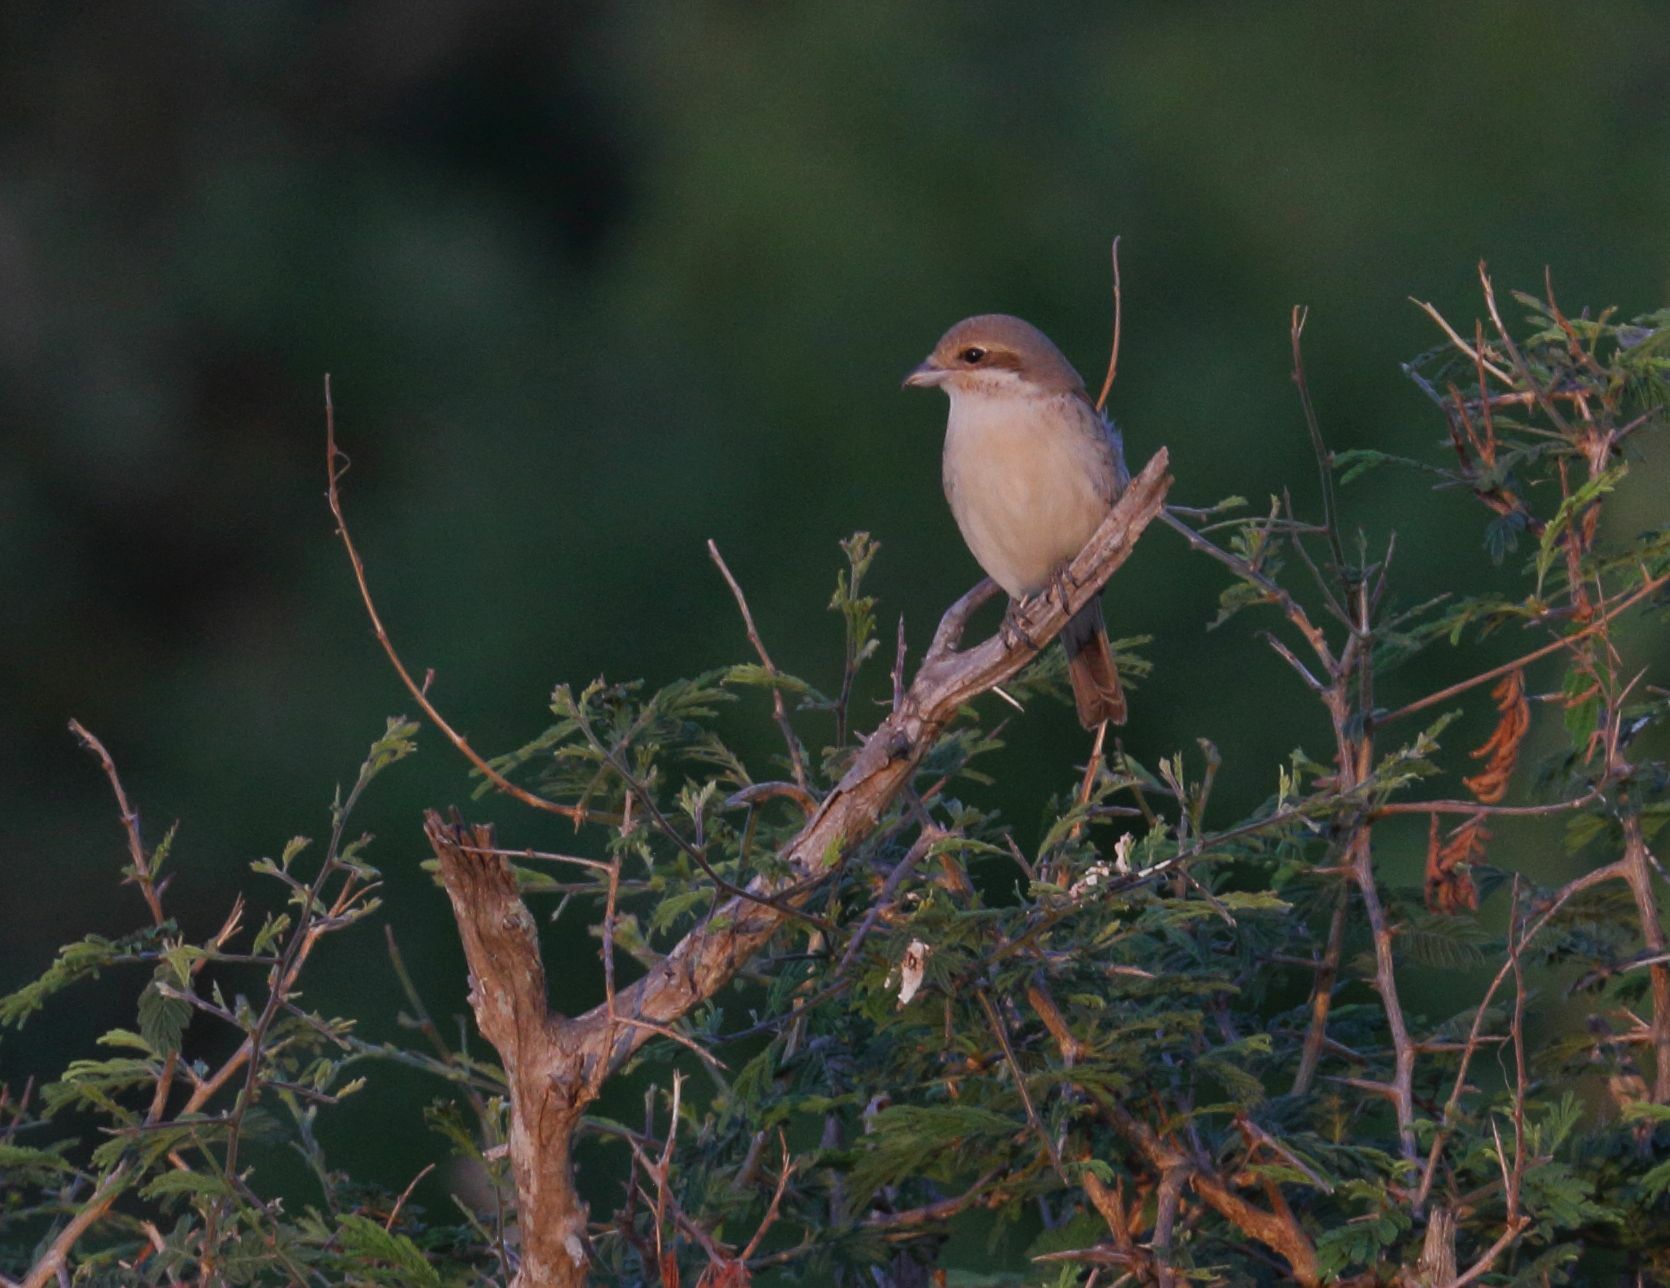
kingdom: Animalia
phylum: Chordata
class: Aves
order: Passeriformes
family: Laniidae
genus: Lanius
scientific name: Lanius collurio
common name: Red-backed shrike
